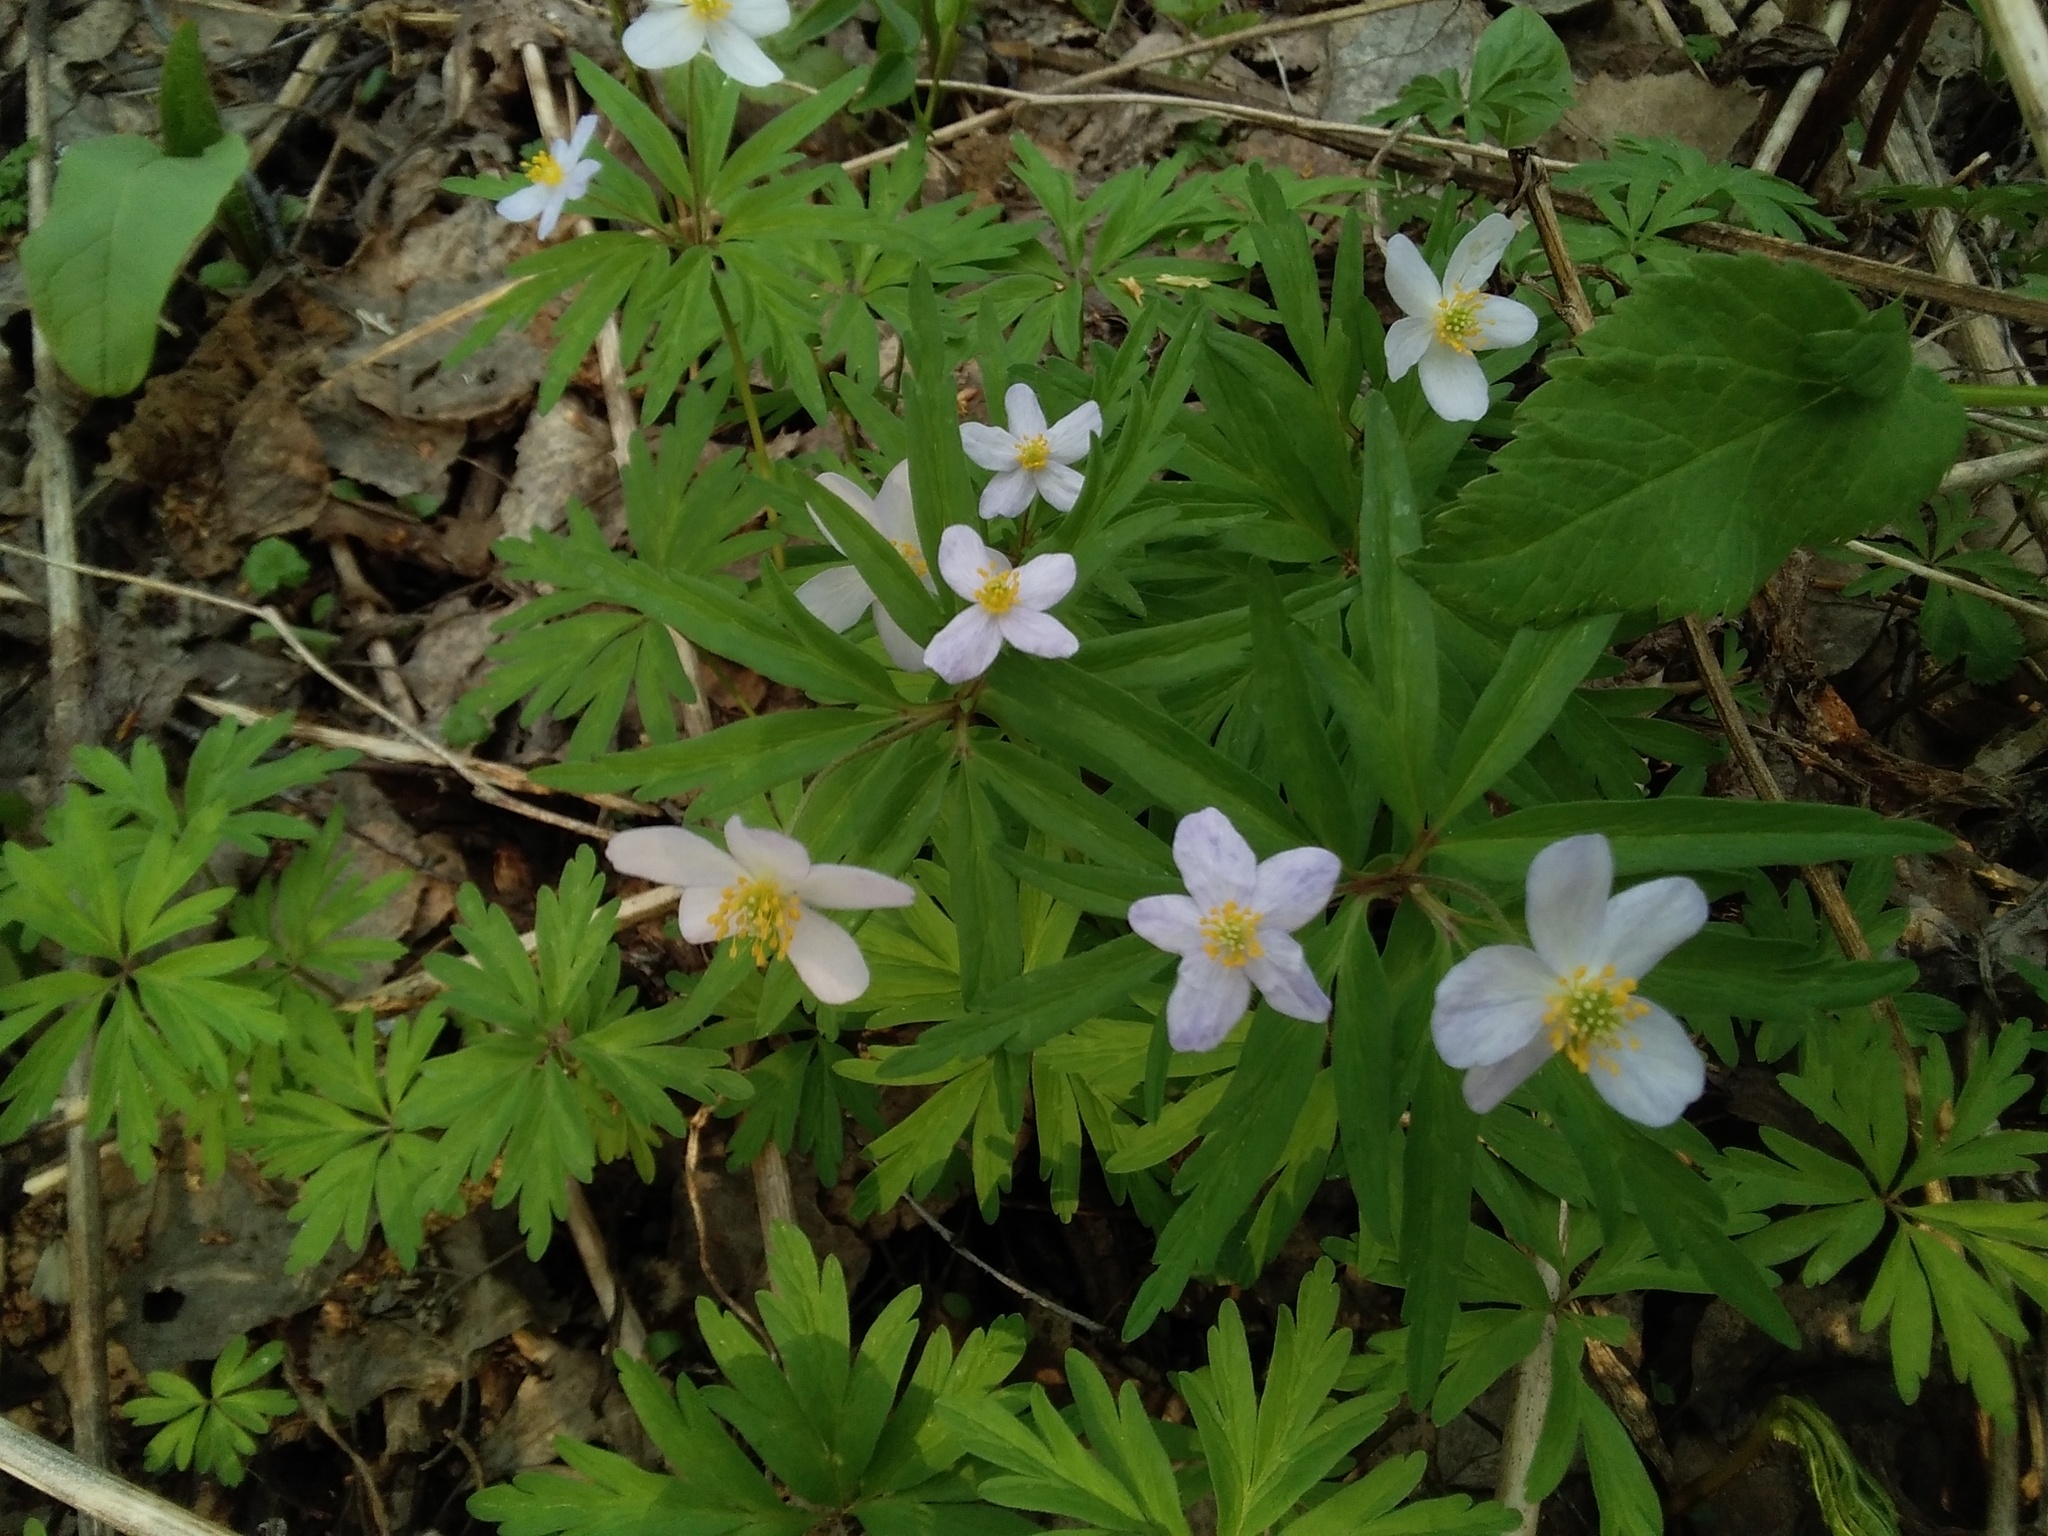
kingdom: Plantae
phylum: Tracheophyta
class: Magnoliopsida
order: Ranunculales
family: Ranunculaceae
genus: Anemone
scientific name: Anemone caerulea
